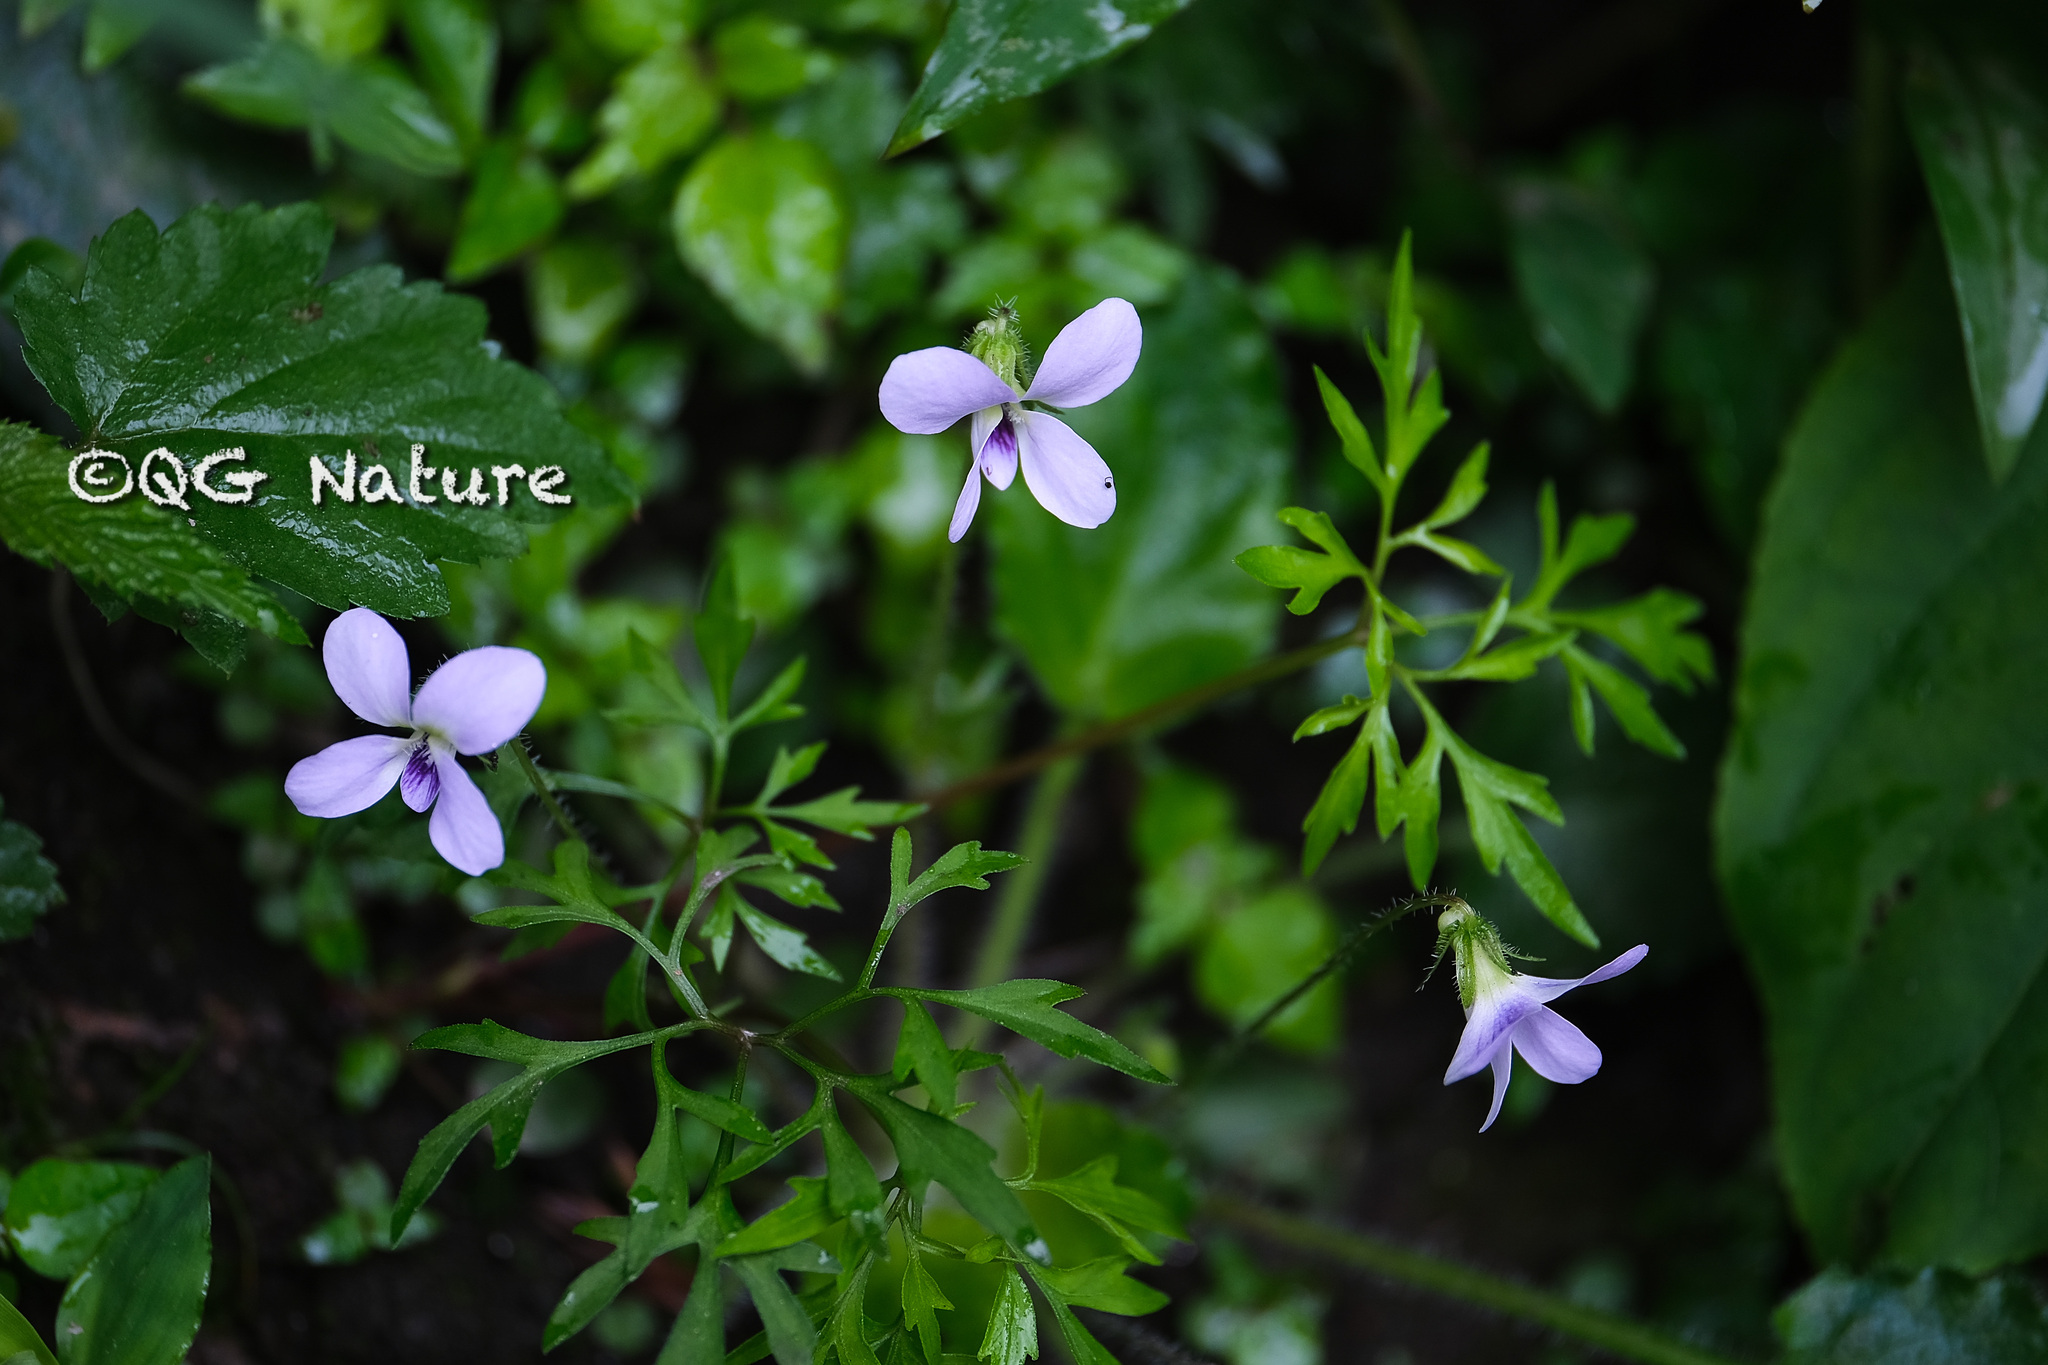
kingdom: Plantae
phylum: Tracheophyta
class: Magnoliopsida
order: Malpighiales
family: Violaceae
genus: Viola
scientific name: Viola diffusa
